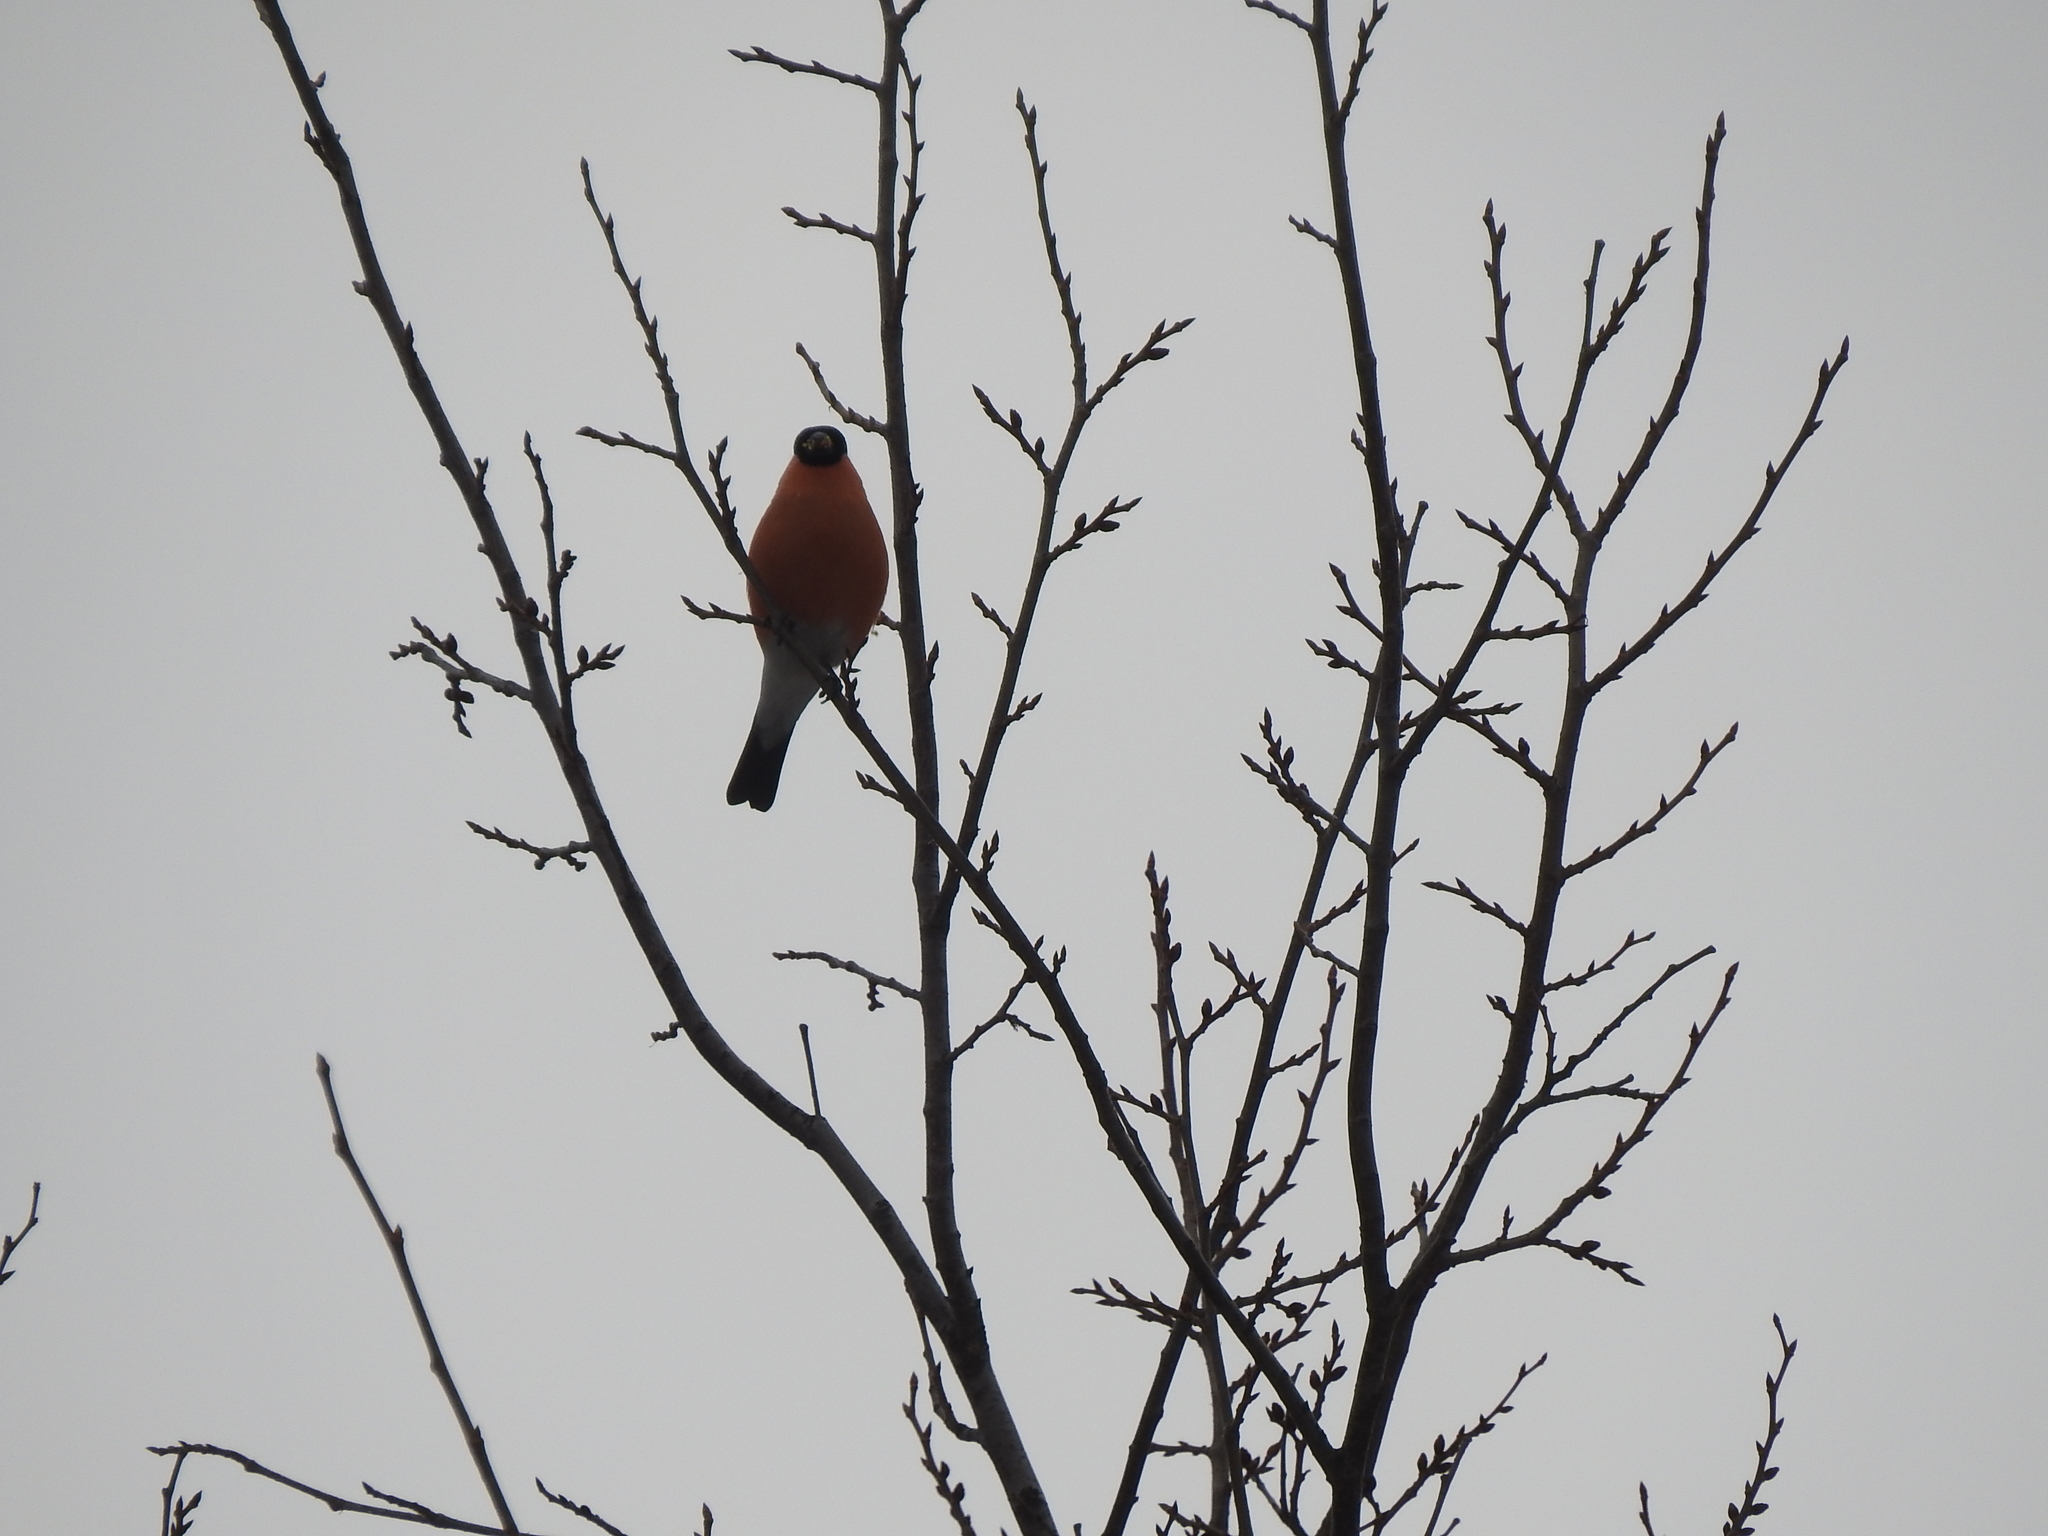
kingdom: Animalia
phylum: Chordata
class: Aves
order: Passeriformes
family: Fringillidae
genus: Pyrrhula
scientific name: Pyrrhula pyrrhula
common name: Eurasian bullfinch
